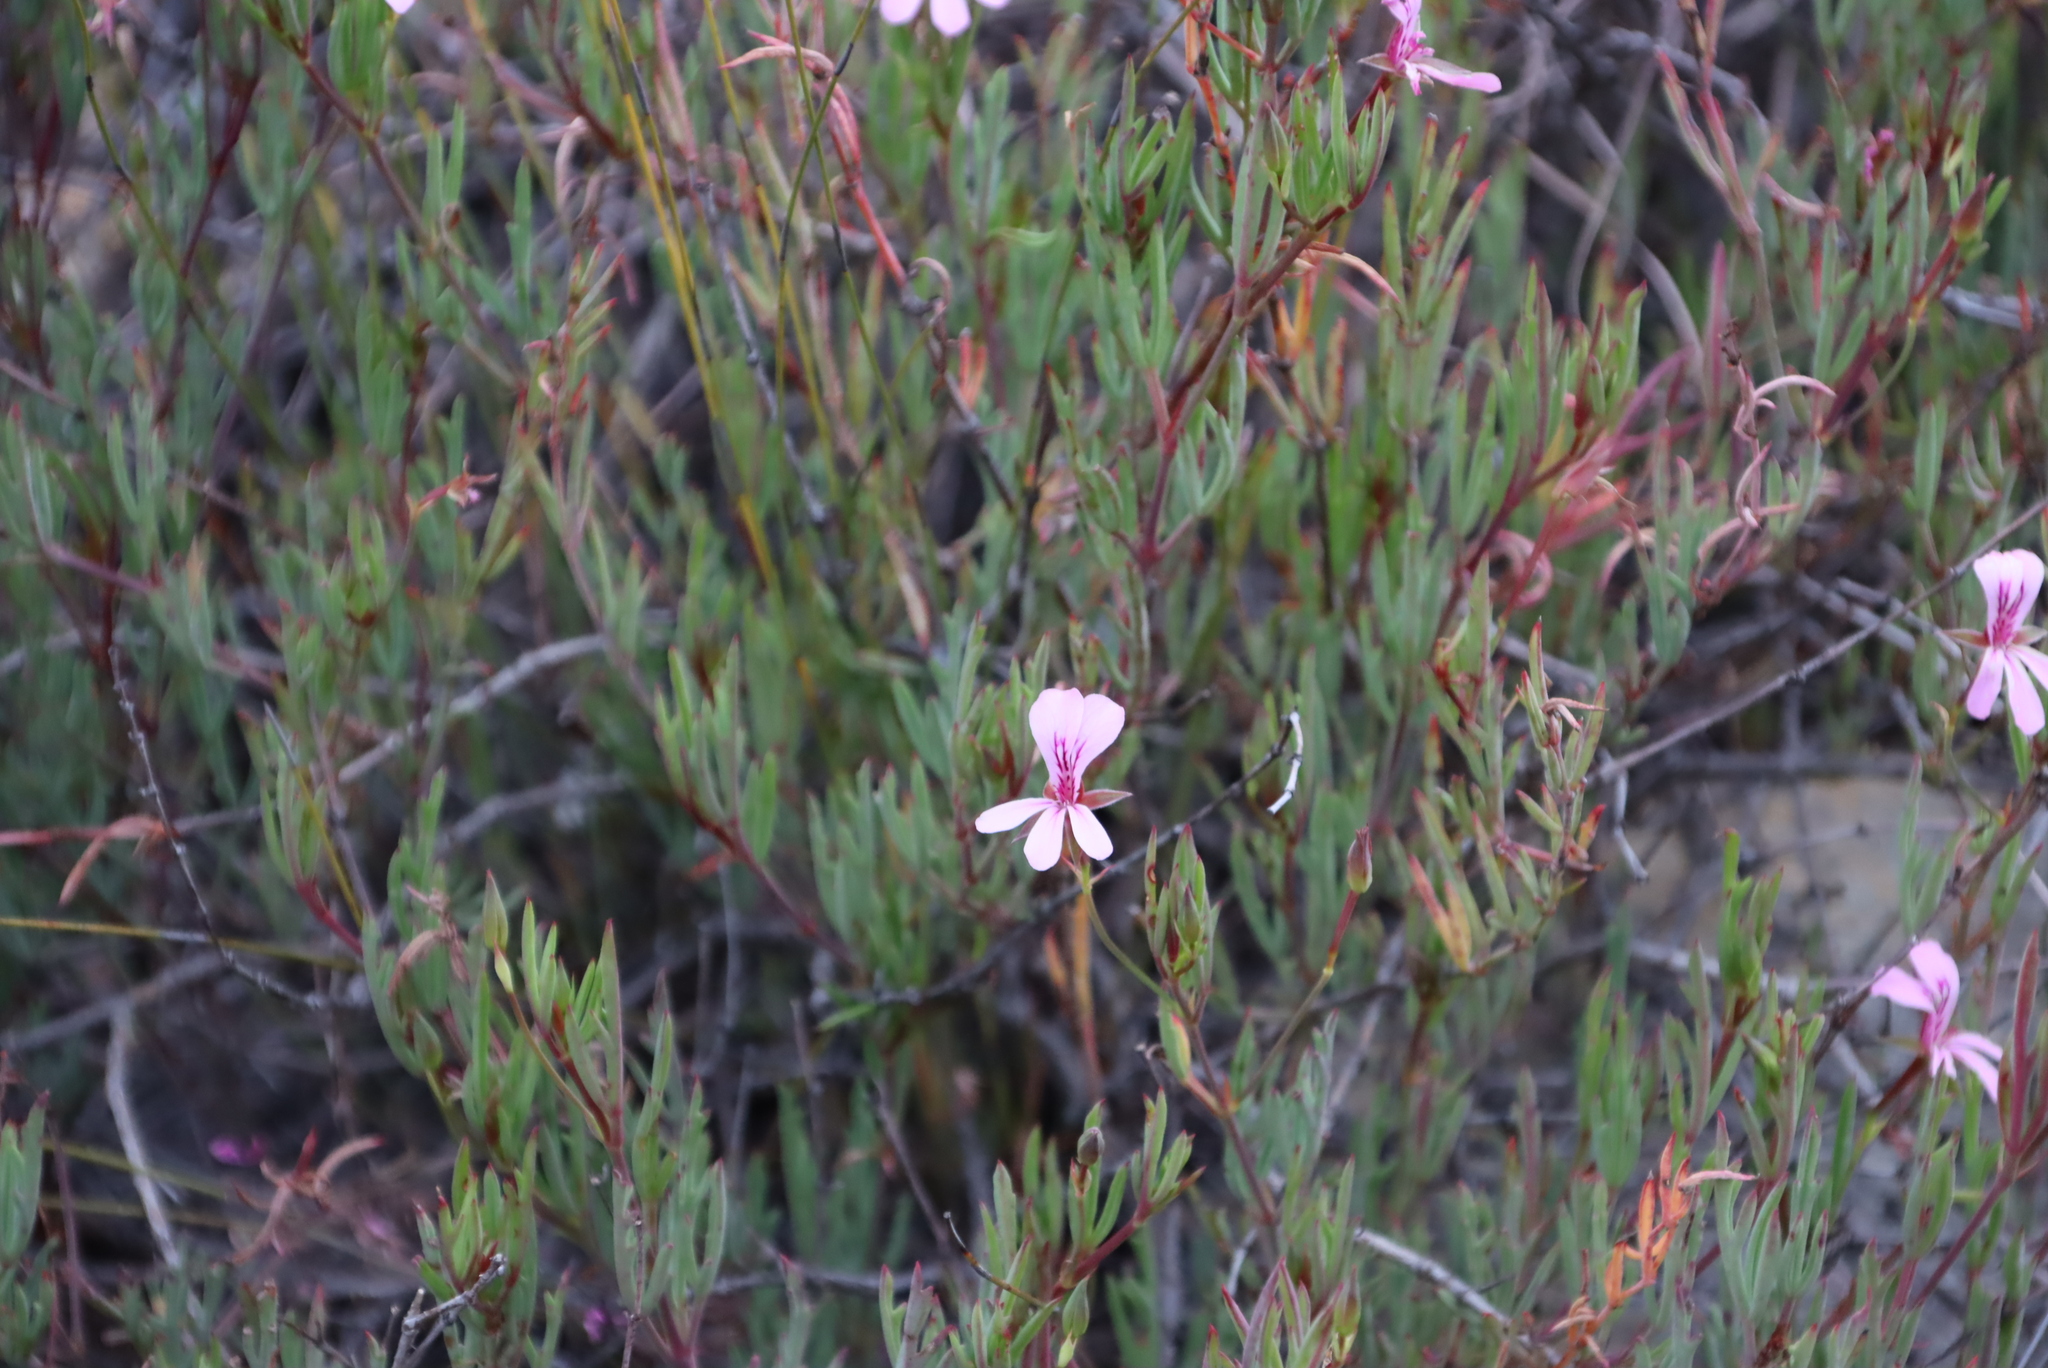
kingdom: Plantae
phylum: Tracheophyta
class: Magnoliopsida
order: Geraniales
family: Geraniaceae
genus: Pelargonium
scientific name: Pelargonium laevigatum
